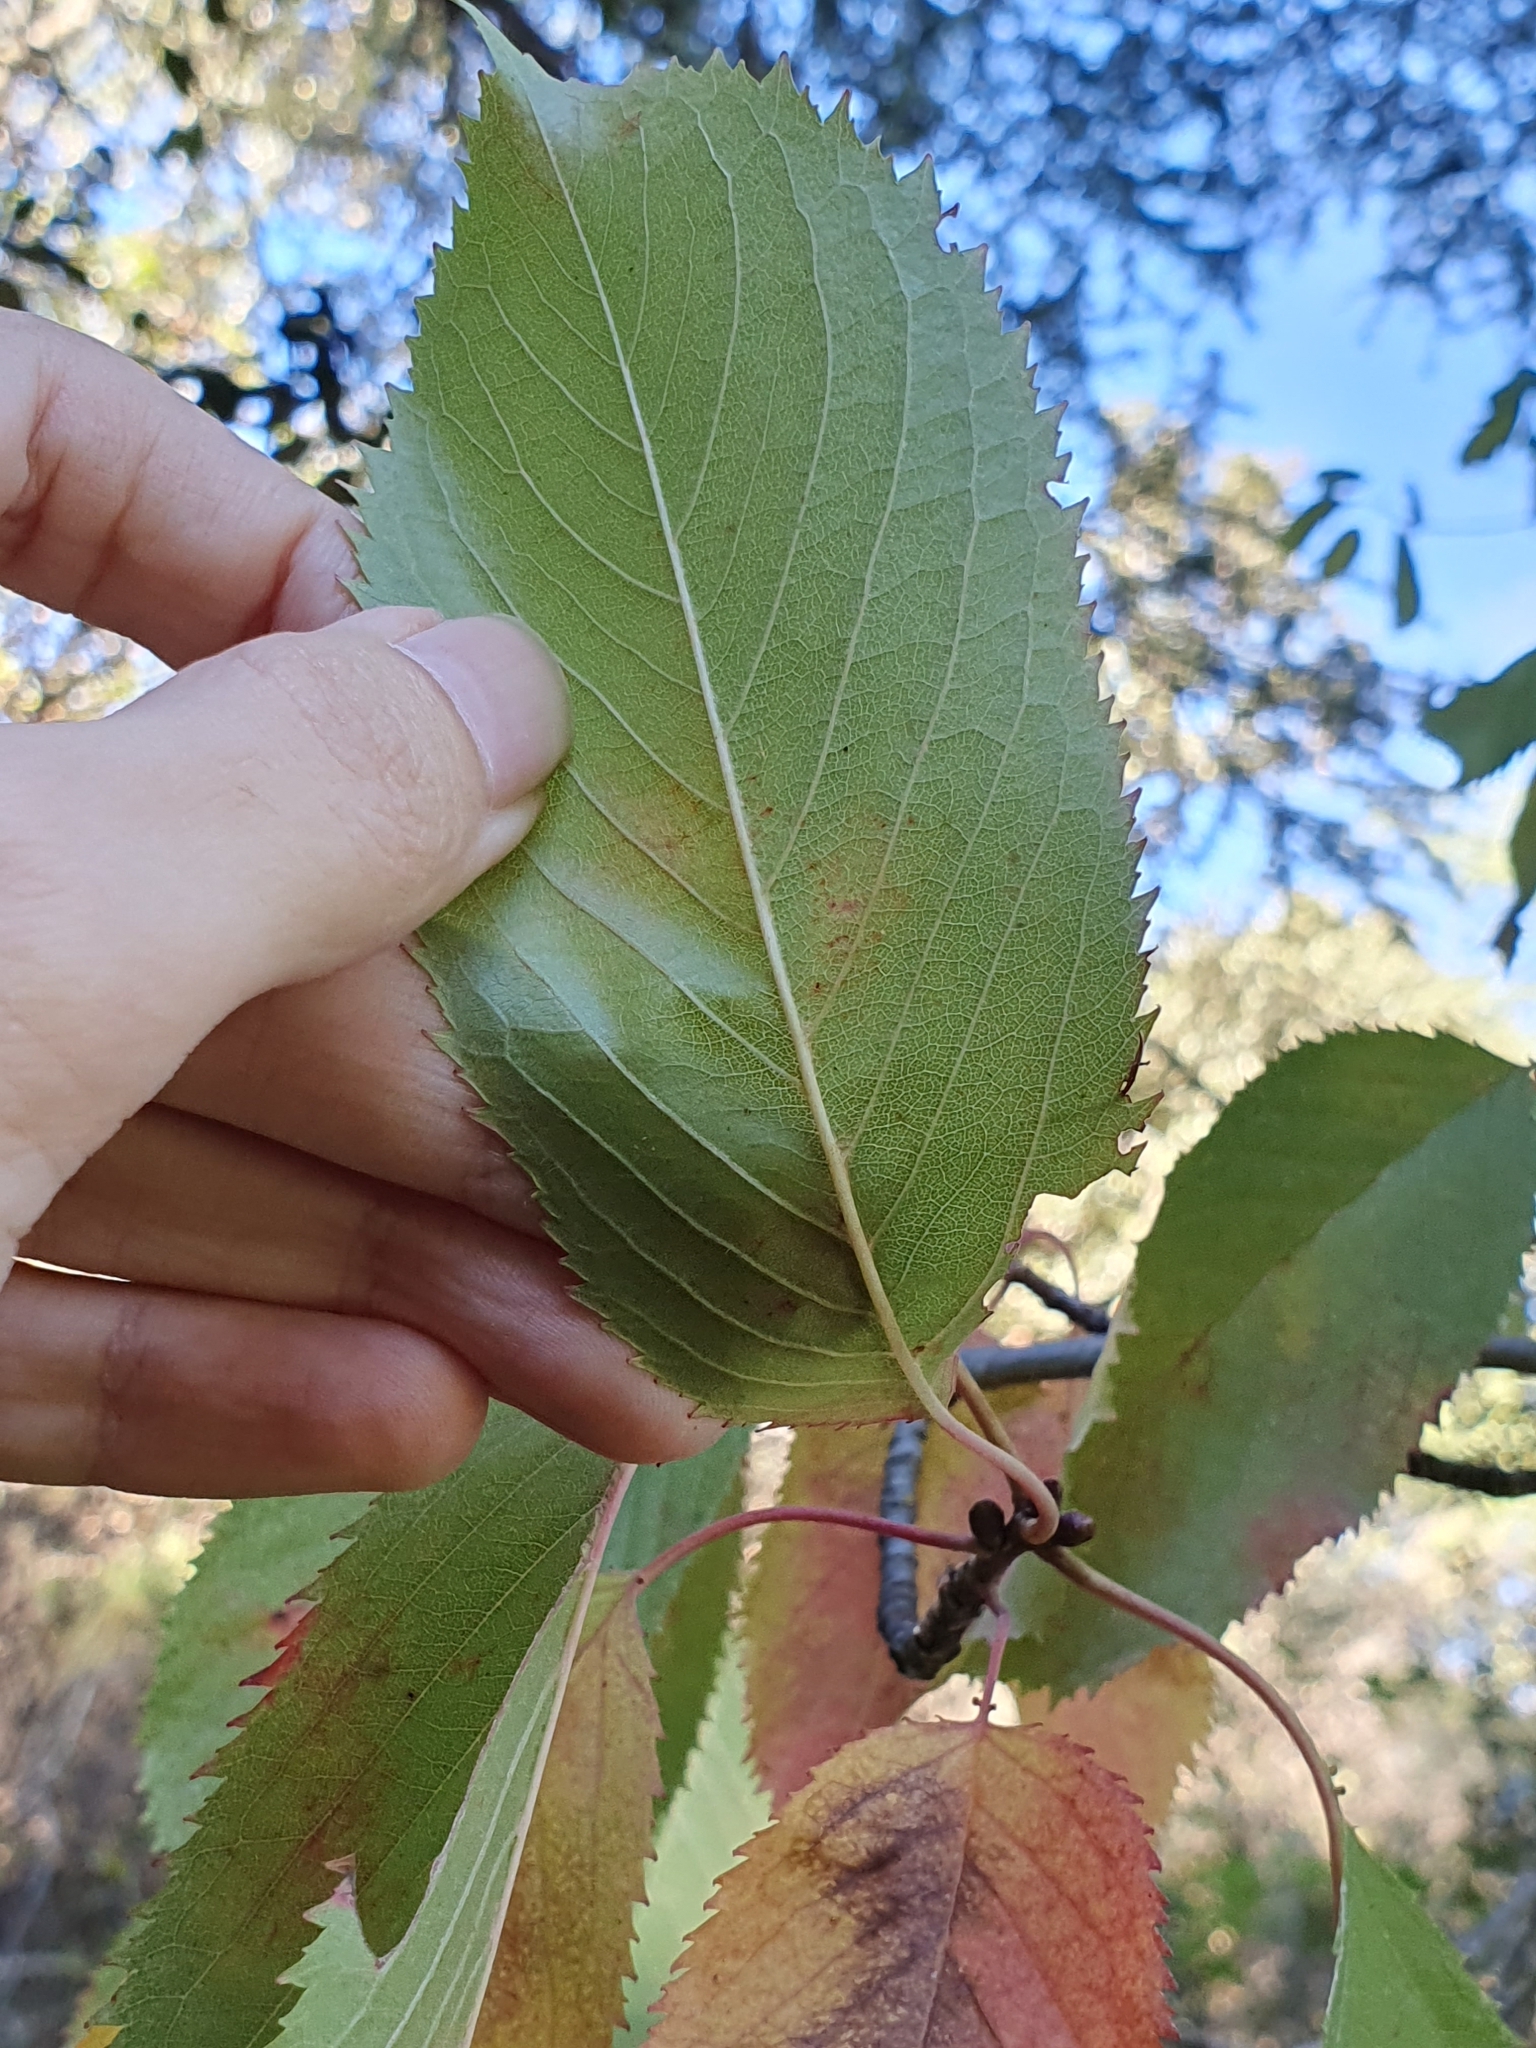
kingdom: Plantae
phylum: Tracheophyta
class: Magnoliopsida
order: Rosales
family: Rosaceae
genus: Prunus
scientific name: Prunus avium
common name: Sweet cherry
